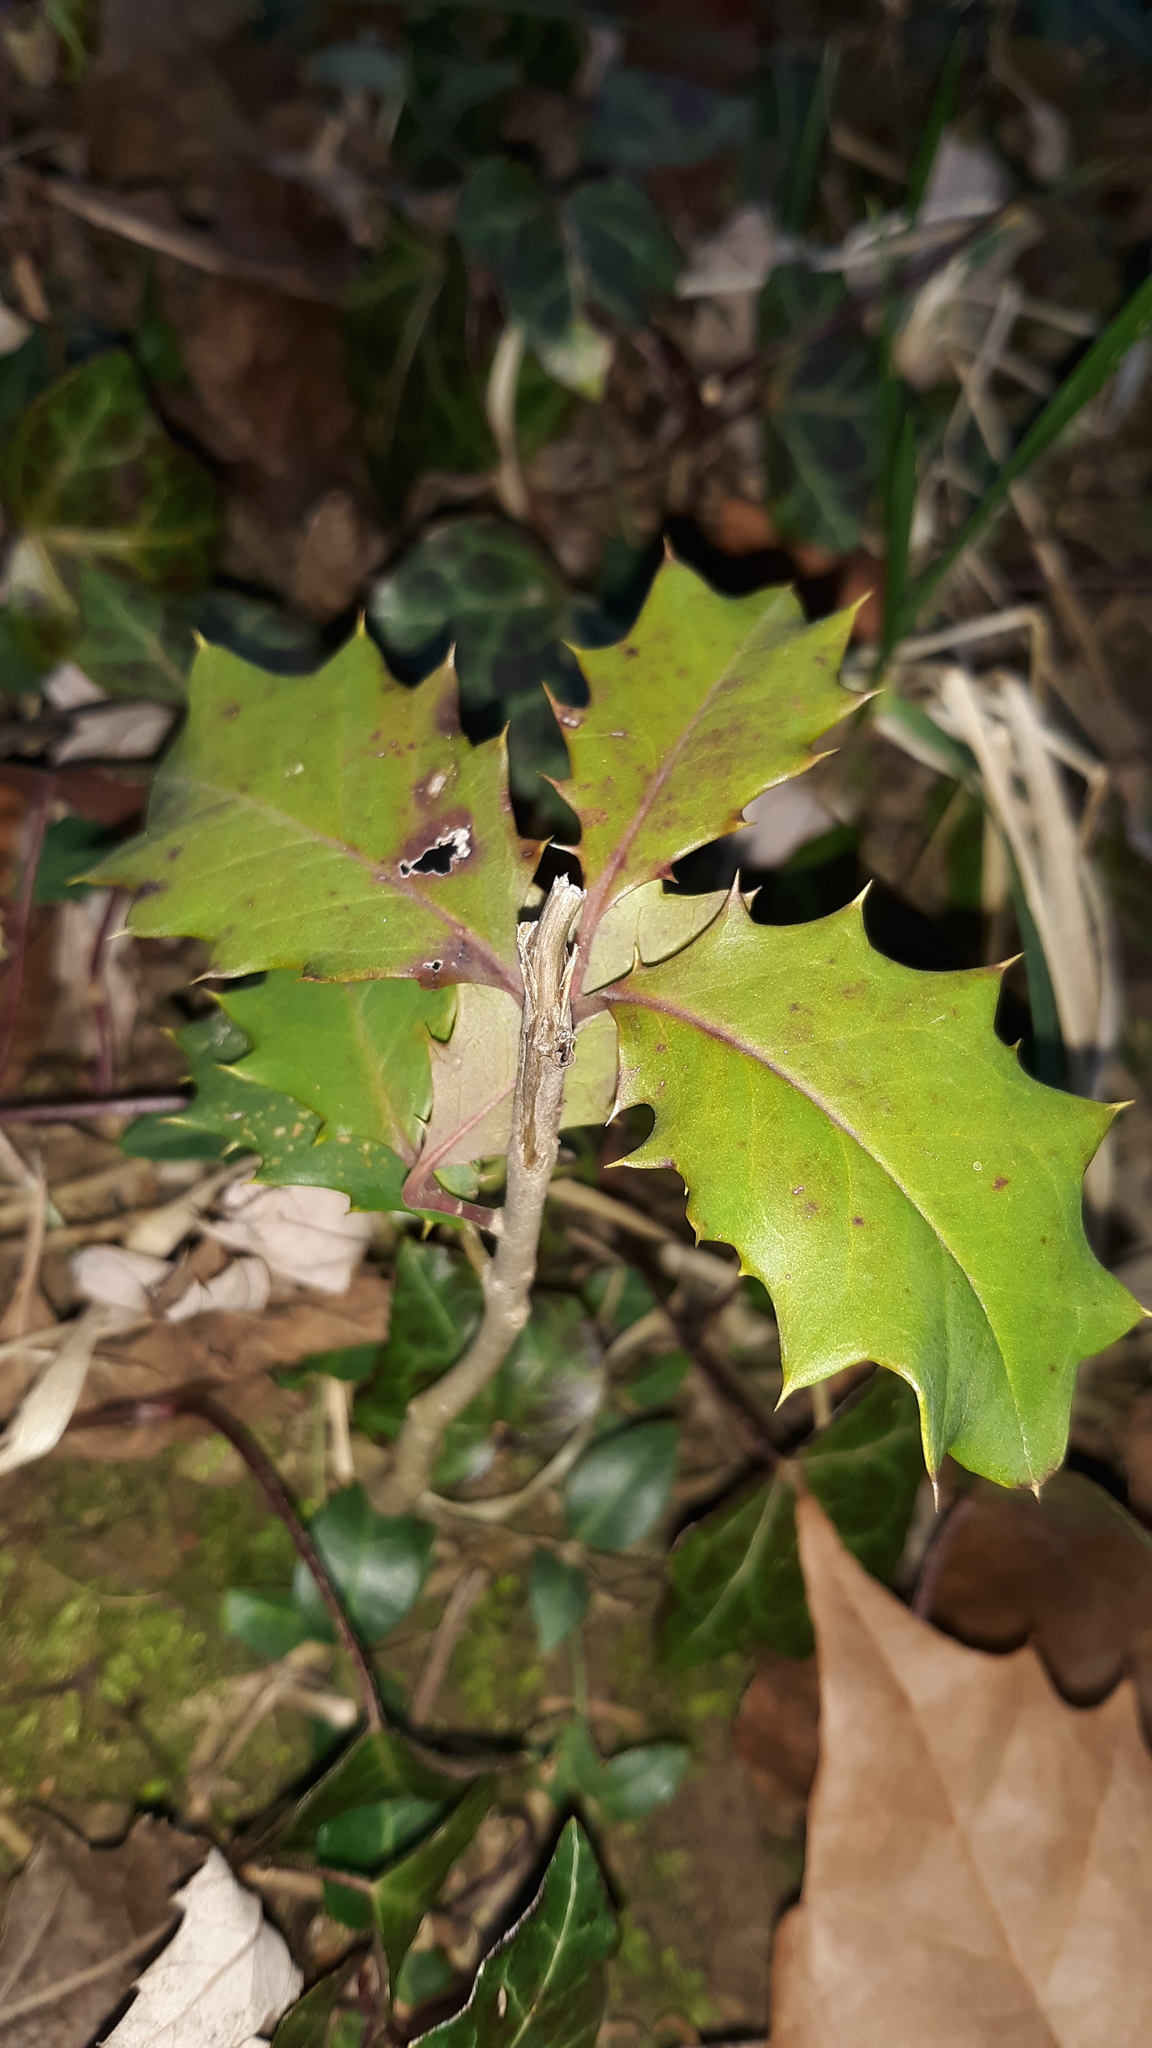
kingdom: Plantae
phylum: Tracheophyta
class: Magnoliopsida
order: Aquifoliales
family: Aquifoliaceae
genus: Ilex
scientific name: Ilex opaca
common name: American holly
